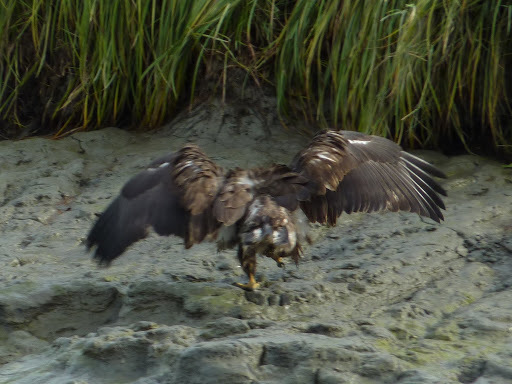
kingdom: Animalia
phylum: Chordata
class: Aves
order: Accipitriformes
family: Accipitridae
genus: Haliaeetus
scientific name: Haliaeetus leucocephalus
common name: Bald eagle
